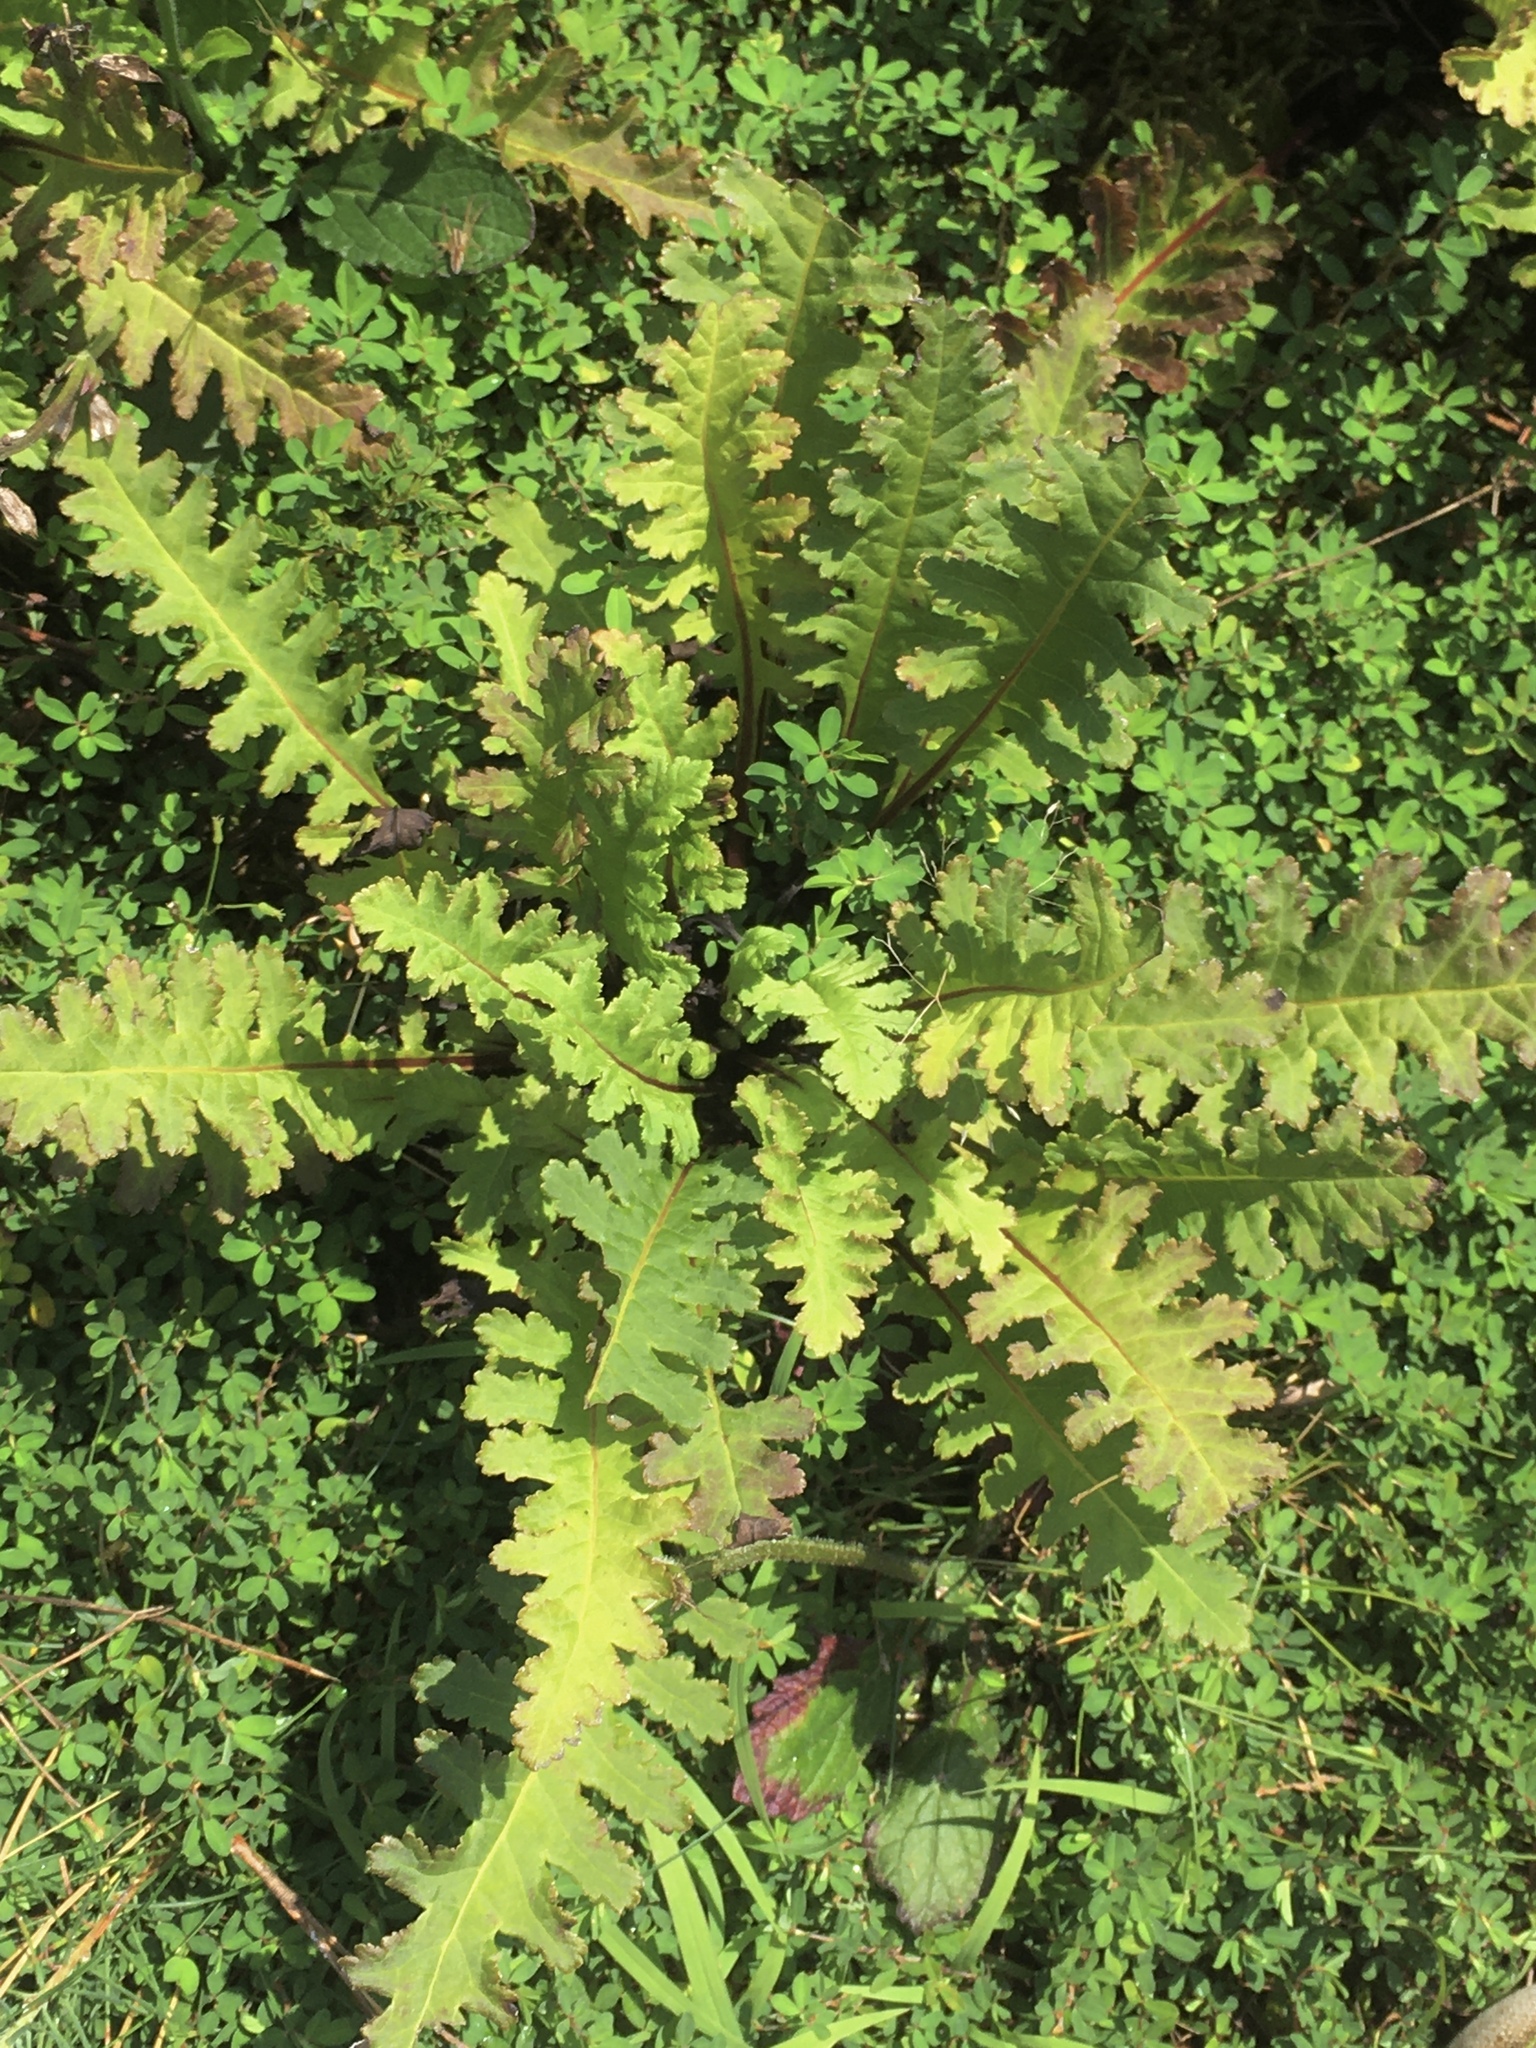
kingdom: Plantae
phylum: Tracheophyta
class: Magnoliopsida
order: Lamiales
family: Orobanchaceae
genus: Pedicularis
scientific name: Pedicularis canadensis
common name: Early lousewort
